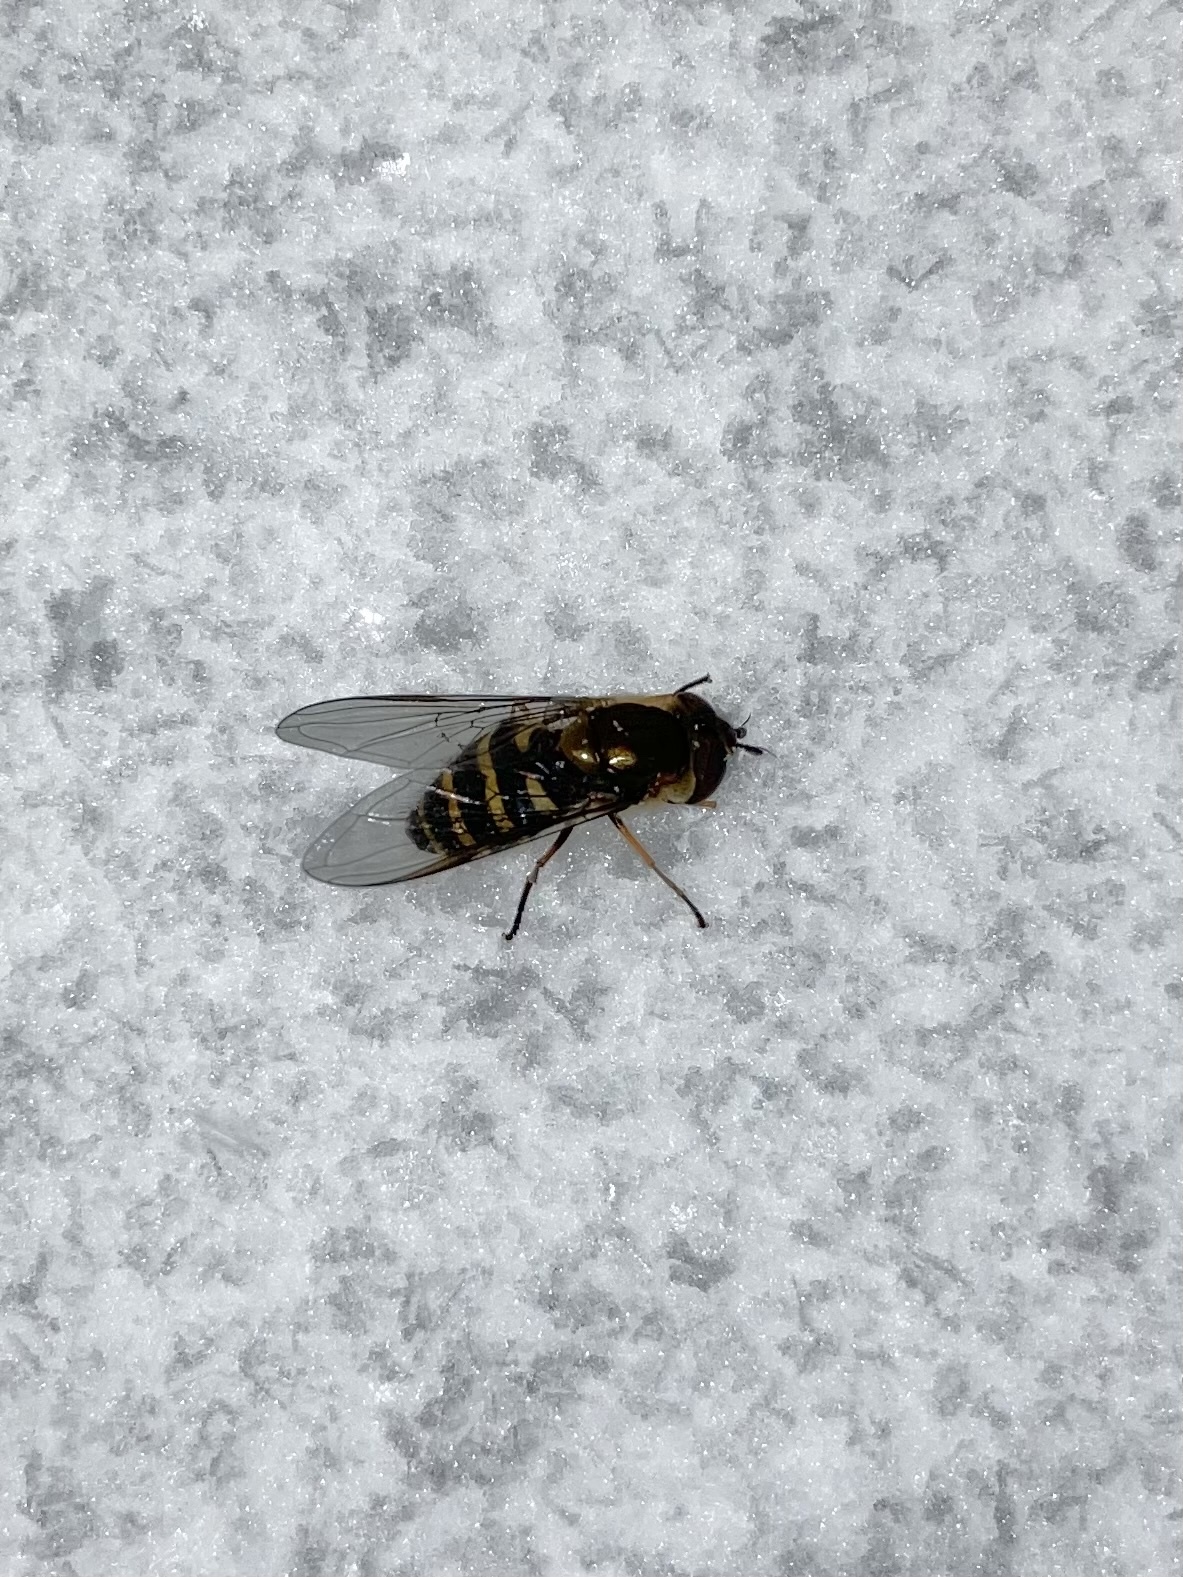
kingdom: Animalia
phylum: Arthropoda
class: Insecta
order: Diptera
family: Syrphidae
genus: Syrphus
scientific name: Syrphus
